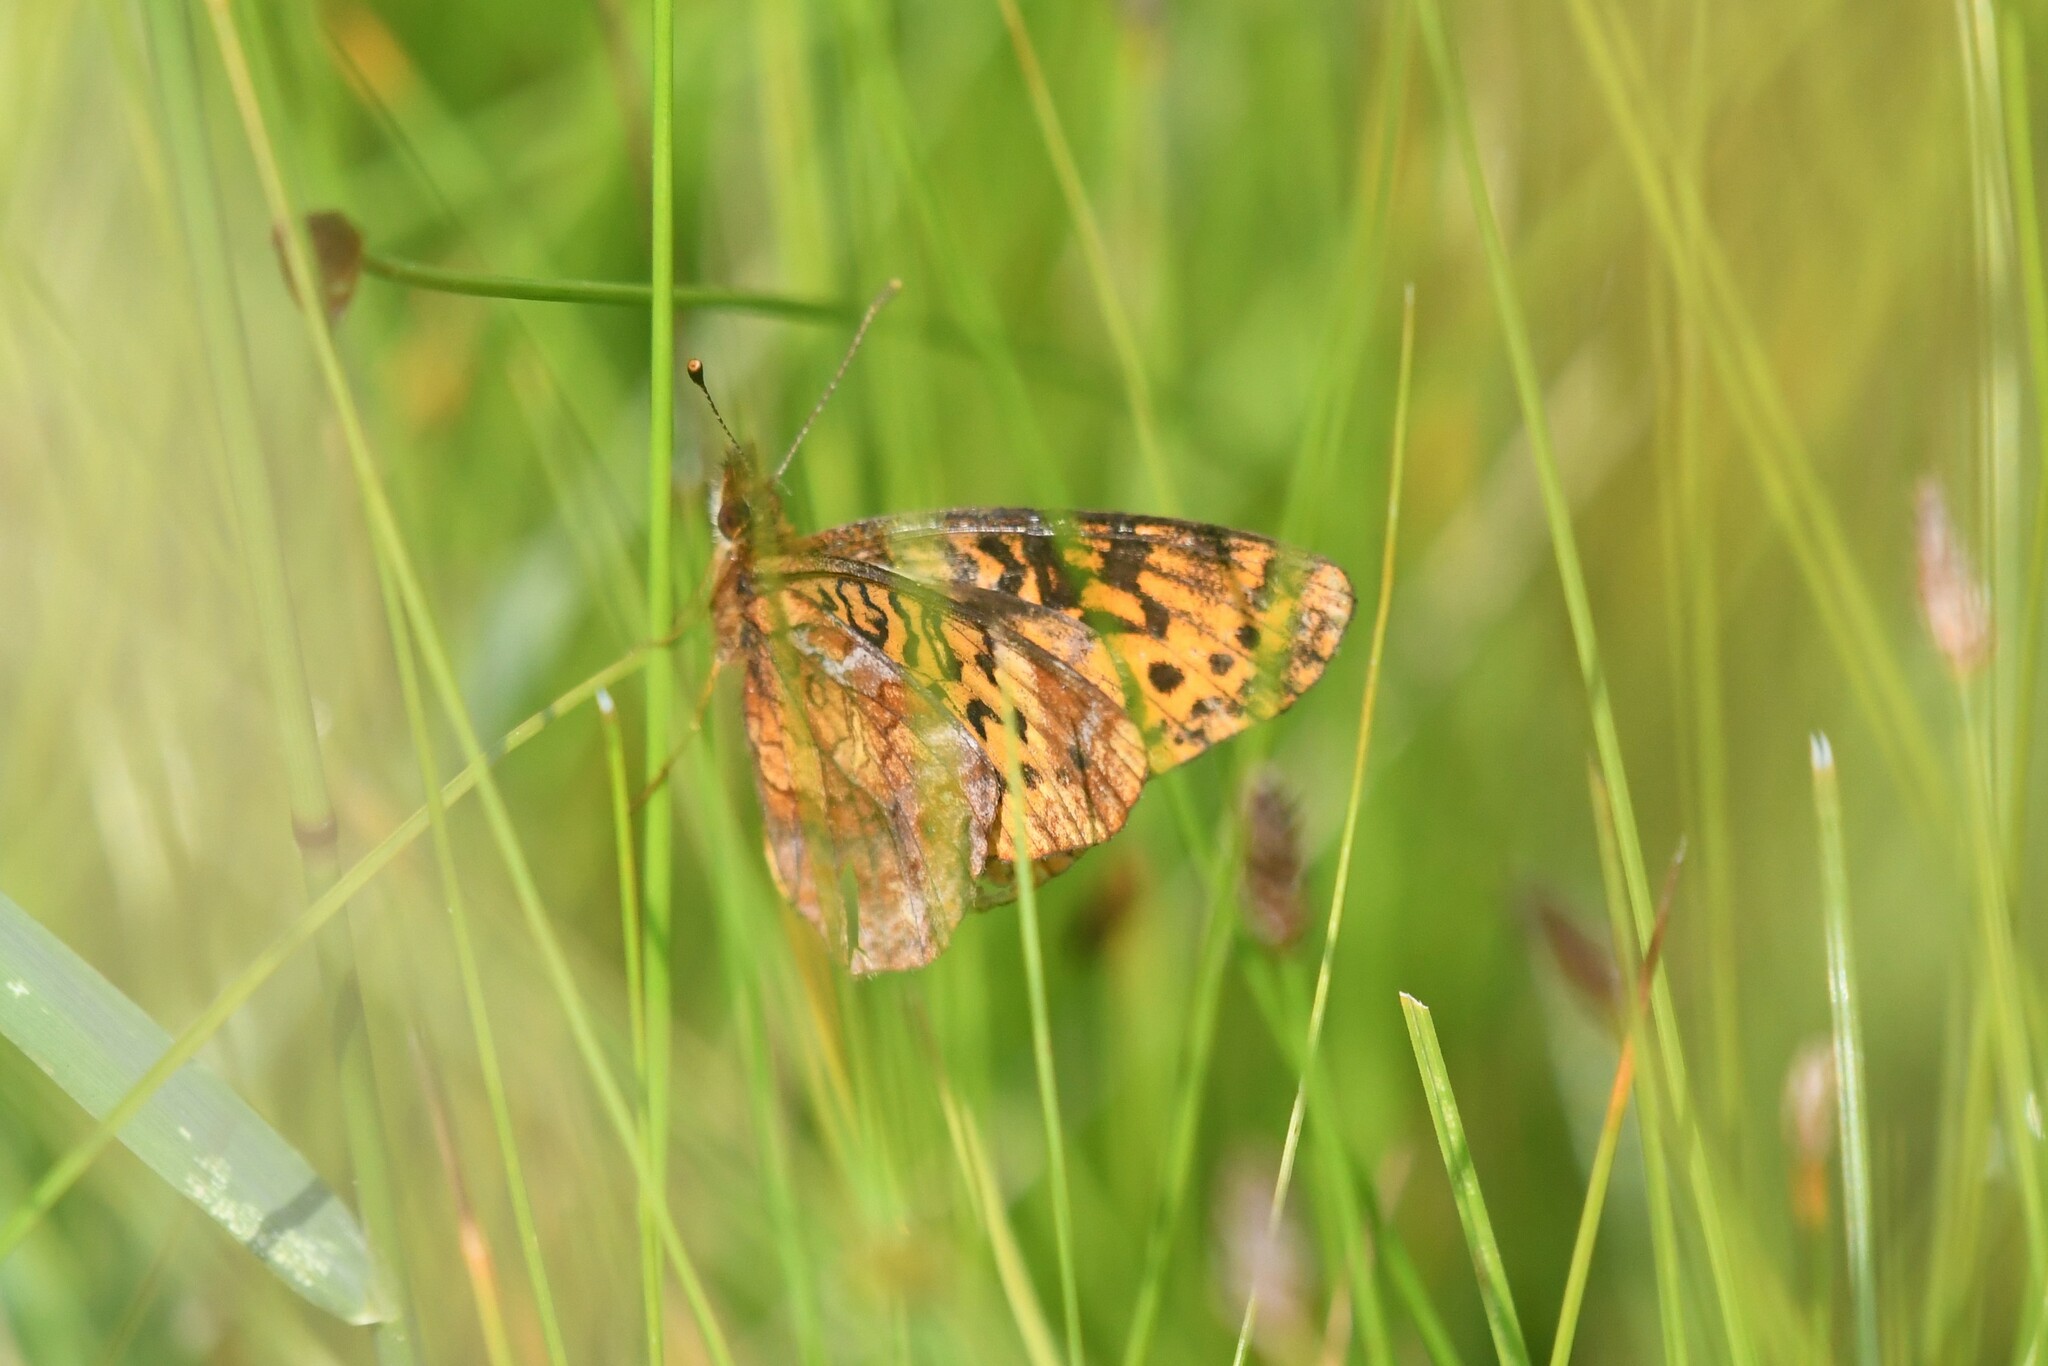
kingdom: Animalia
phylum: Arthropoda
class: Insecta
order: Lepidoptera
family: Nymphalidae
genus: Clossiana
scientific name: Clossiana toddi
